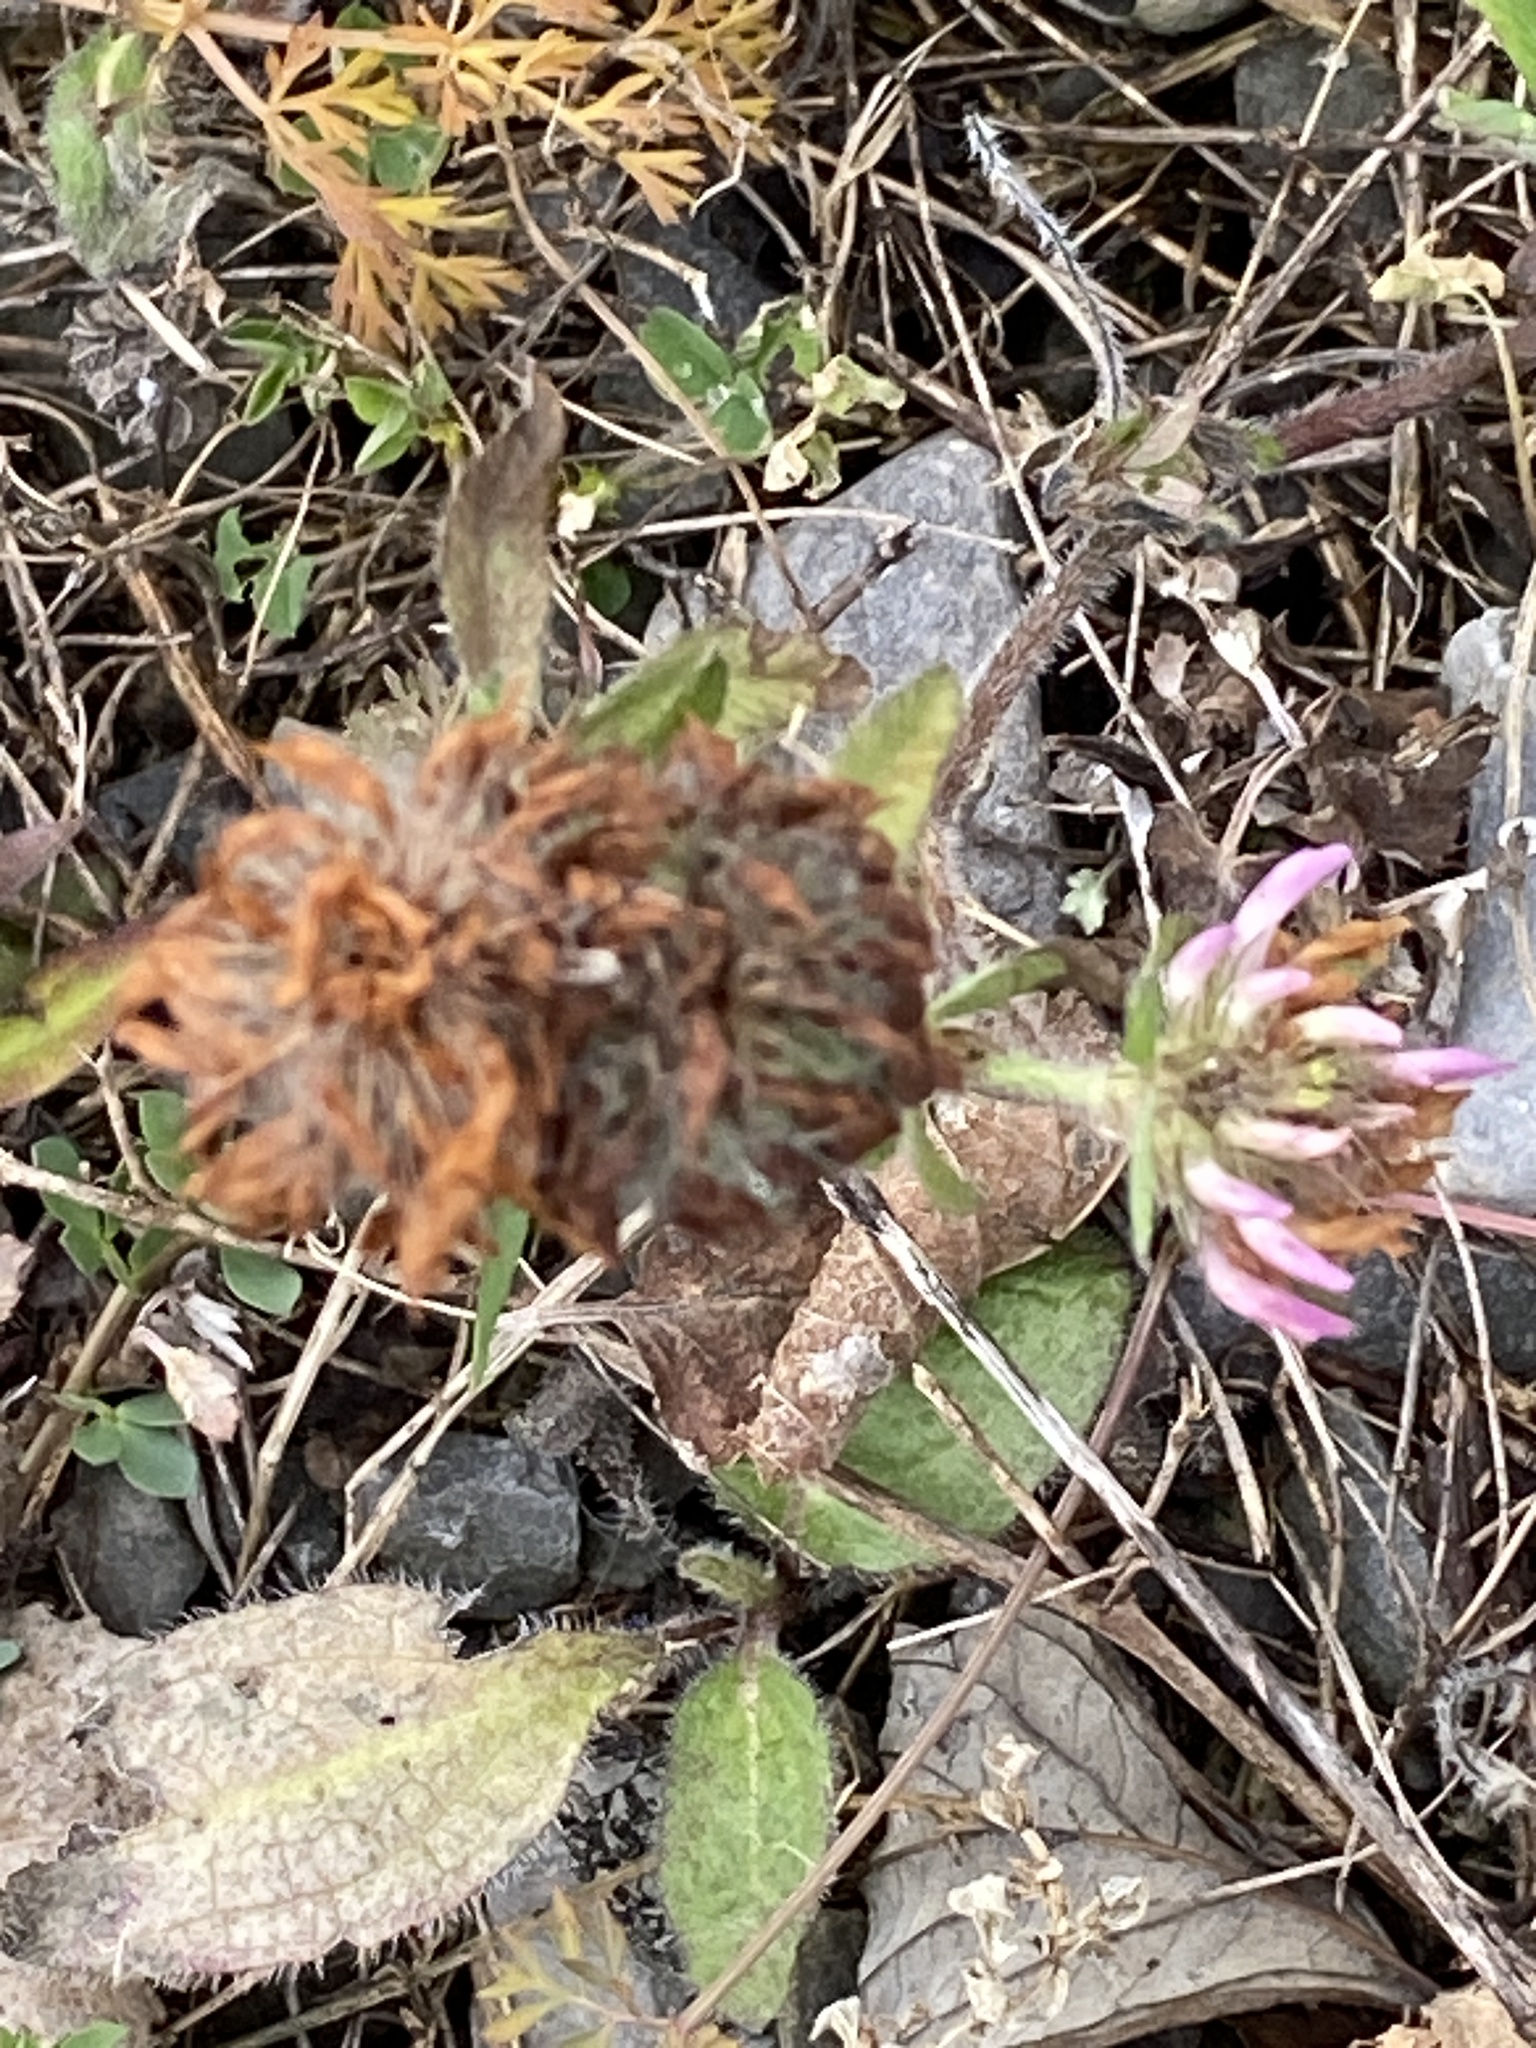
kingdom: Plantae
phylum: Tracheophyta
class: Magnoliopsida
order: Fabales
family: Fabaceae
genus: Trifolium
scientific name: Trifolium pratense
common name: Red clover
